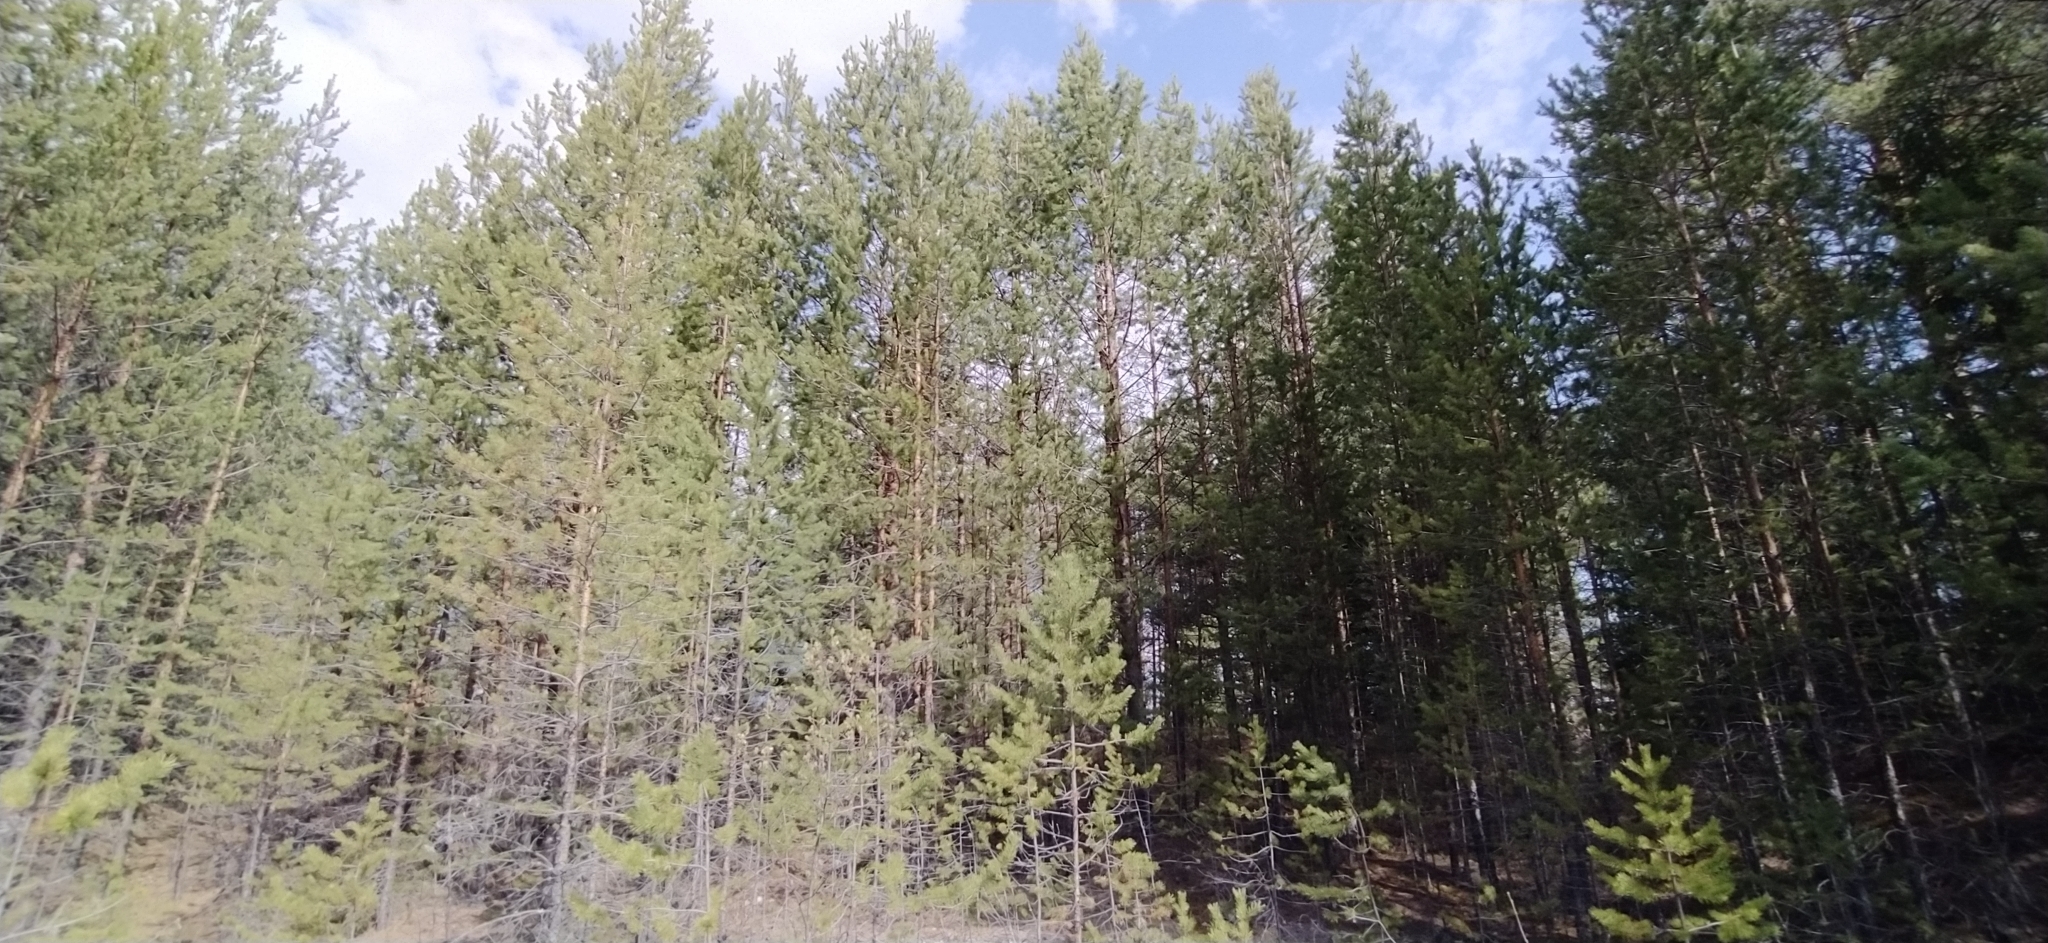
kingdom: Plantae
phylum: Tracheophyta
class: Pinopsida
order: Pinales
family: Pinaceae
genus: Pinus
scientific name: Pinus sylvestris
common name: Scots pine
